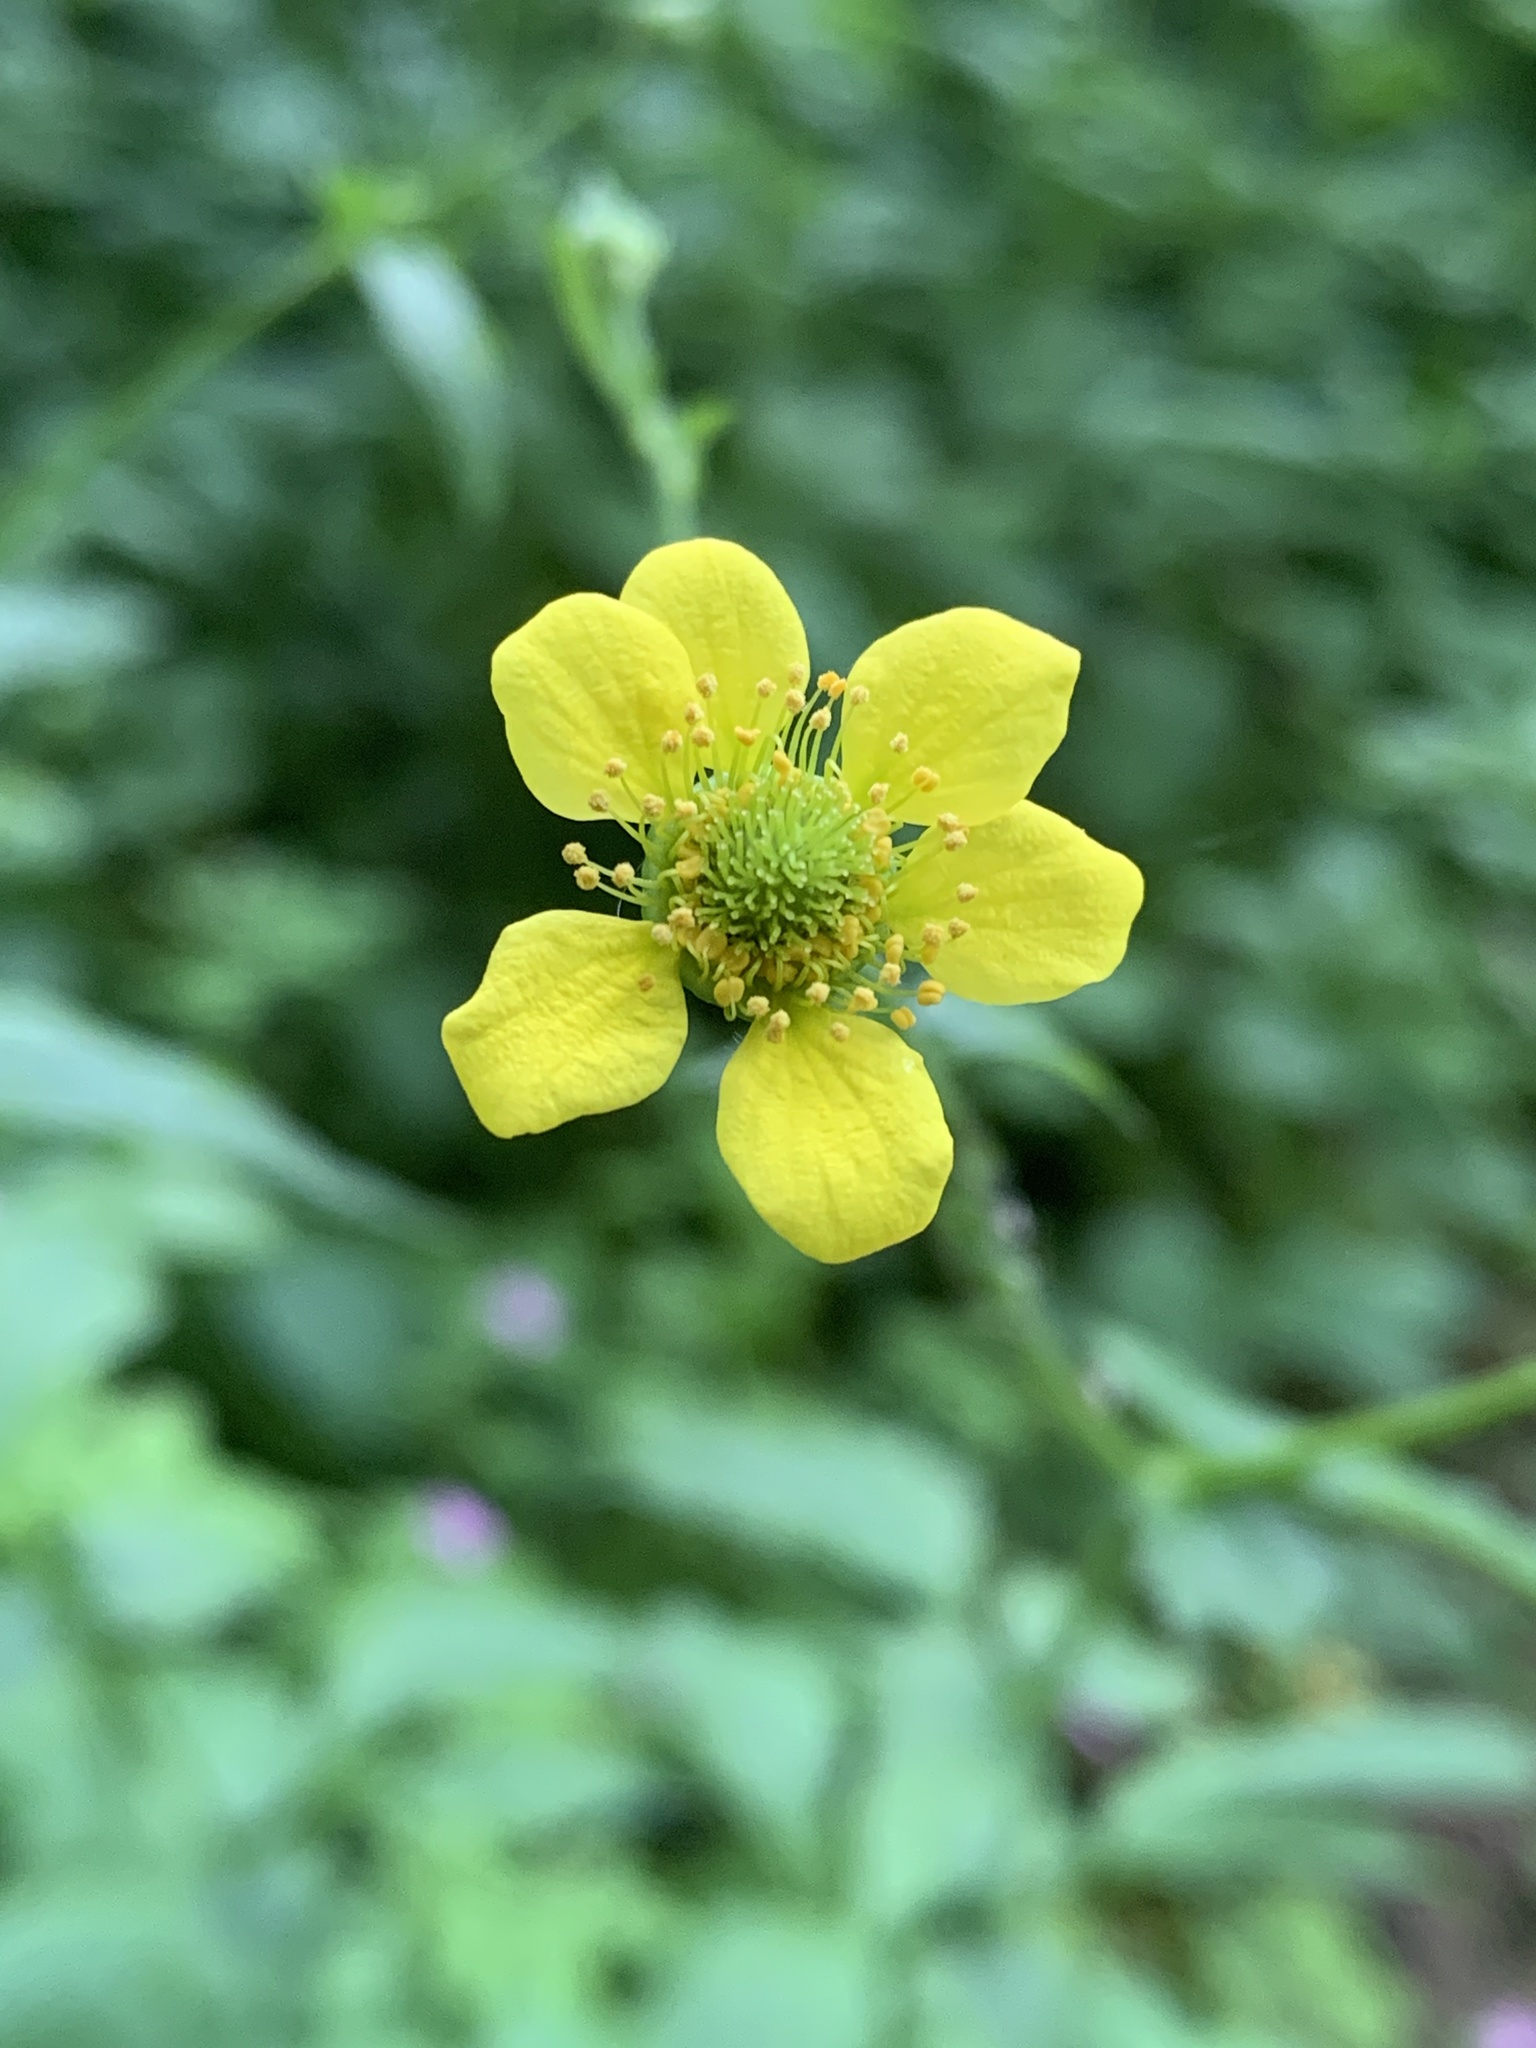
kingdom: Plantae
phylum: Tracheophyta
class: Magnoliopsida
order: Ranunculales
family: Papaveraceae
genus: Chelidonium
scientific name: Chelidonium majus
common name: Greater celandine
